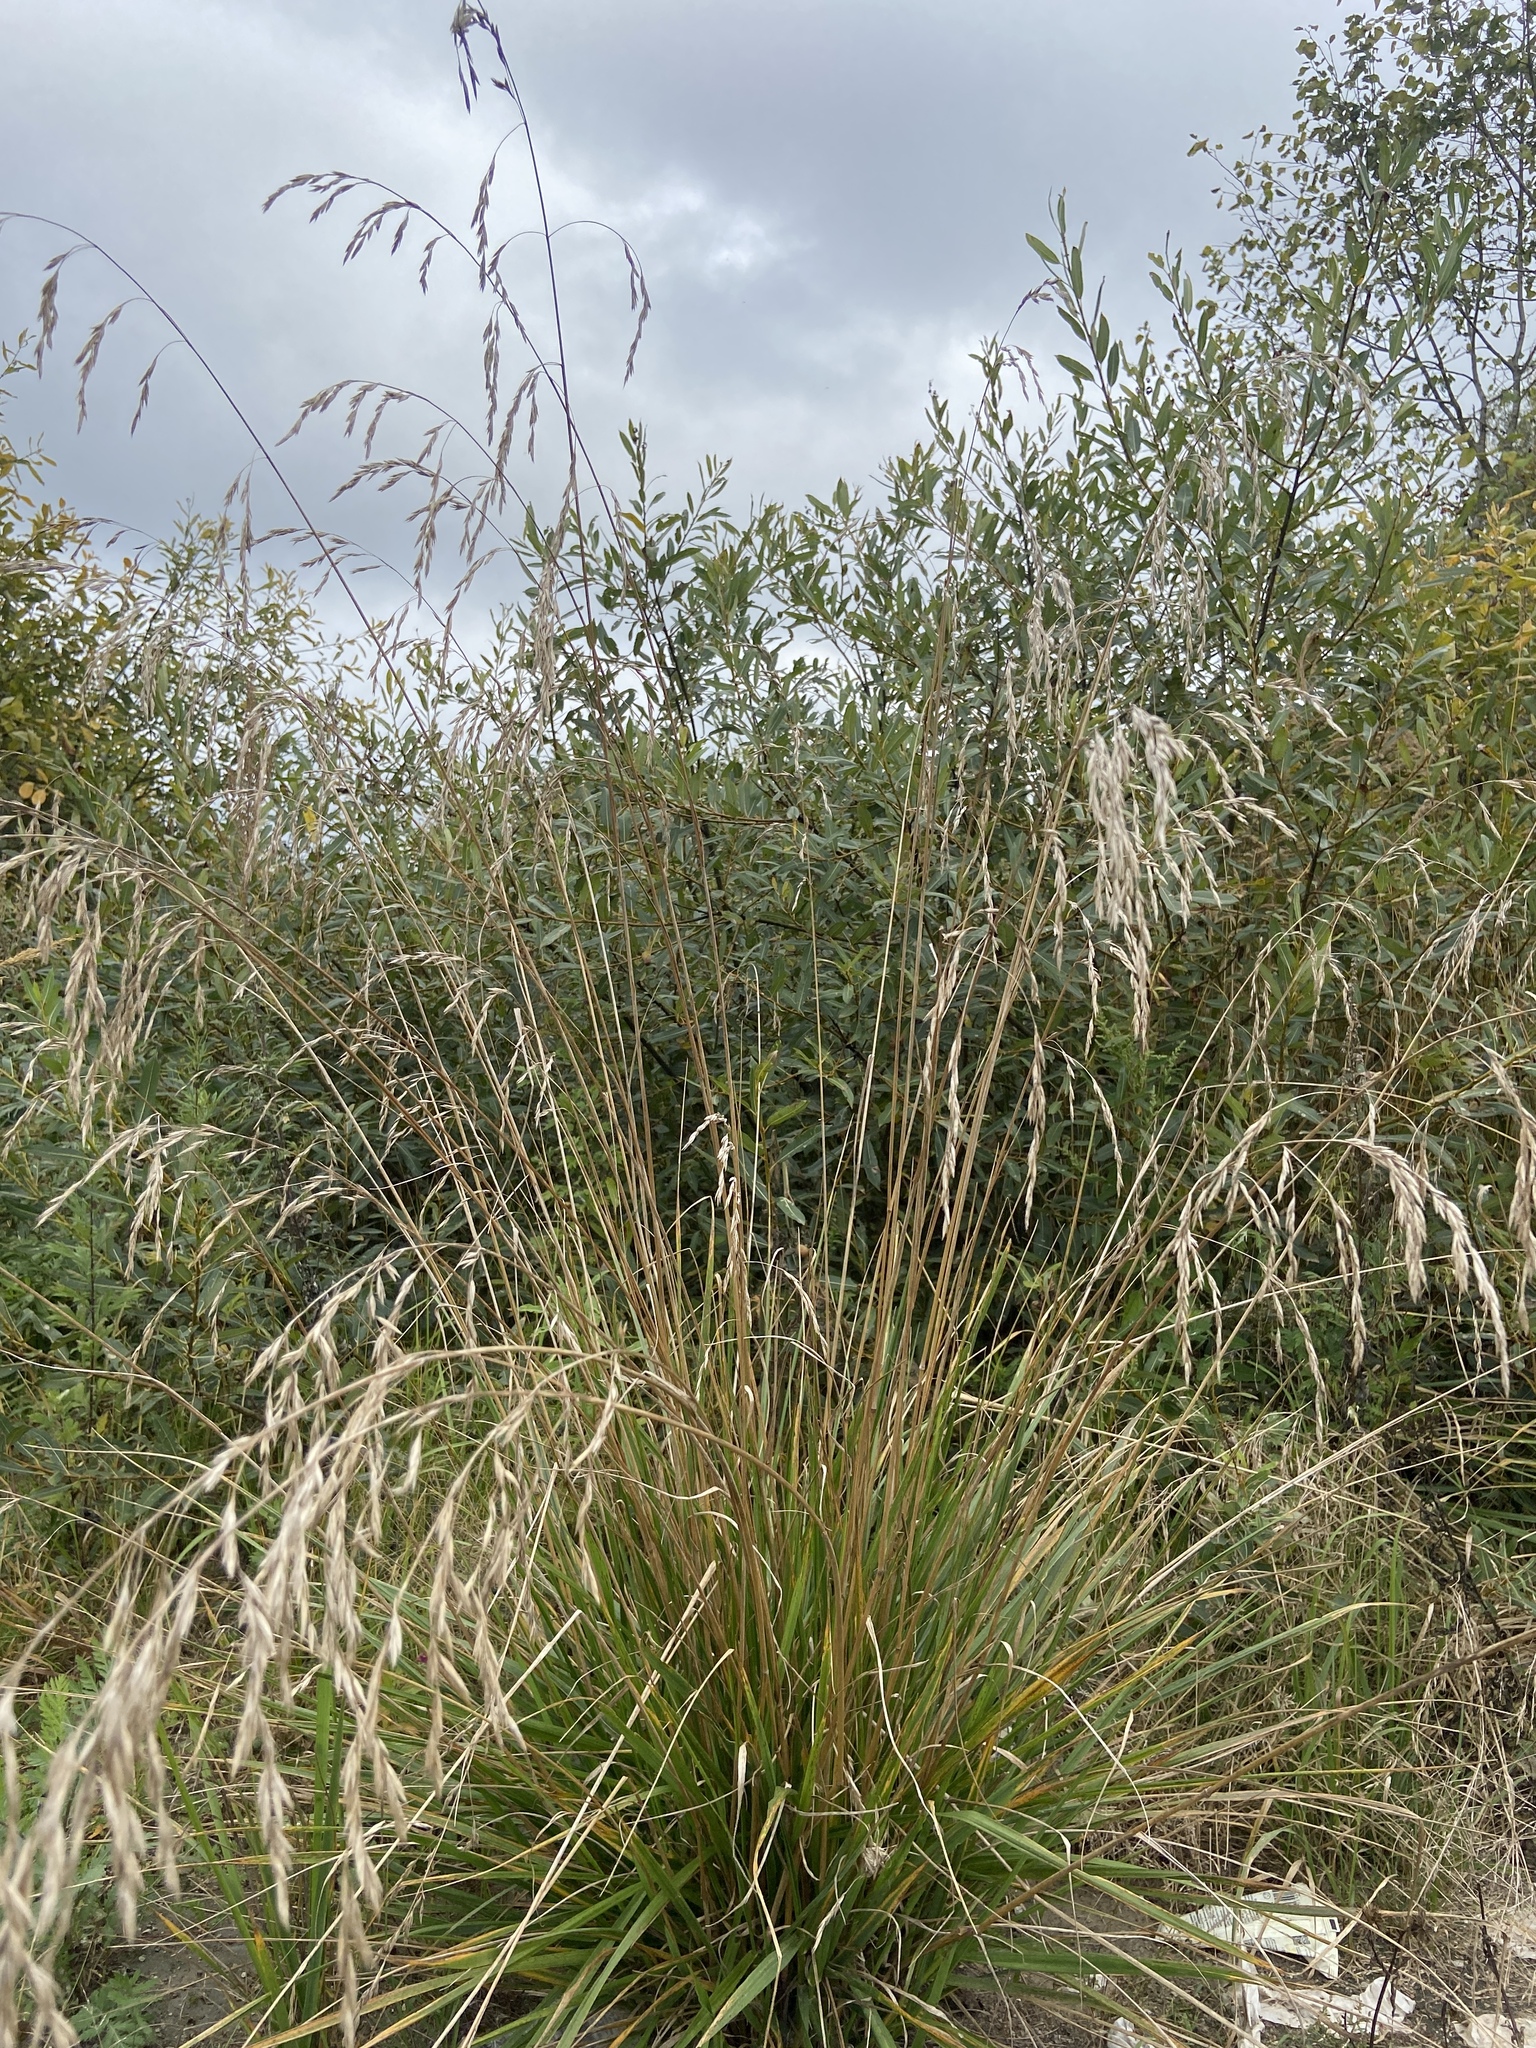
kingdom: Plantae
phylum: Tracheophyta
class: Liliopsida
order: Poales
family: Poaceae
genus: Lolium
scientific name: Lolium arundinaceum
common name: Reed fescue
